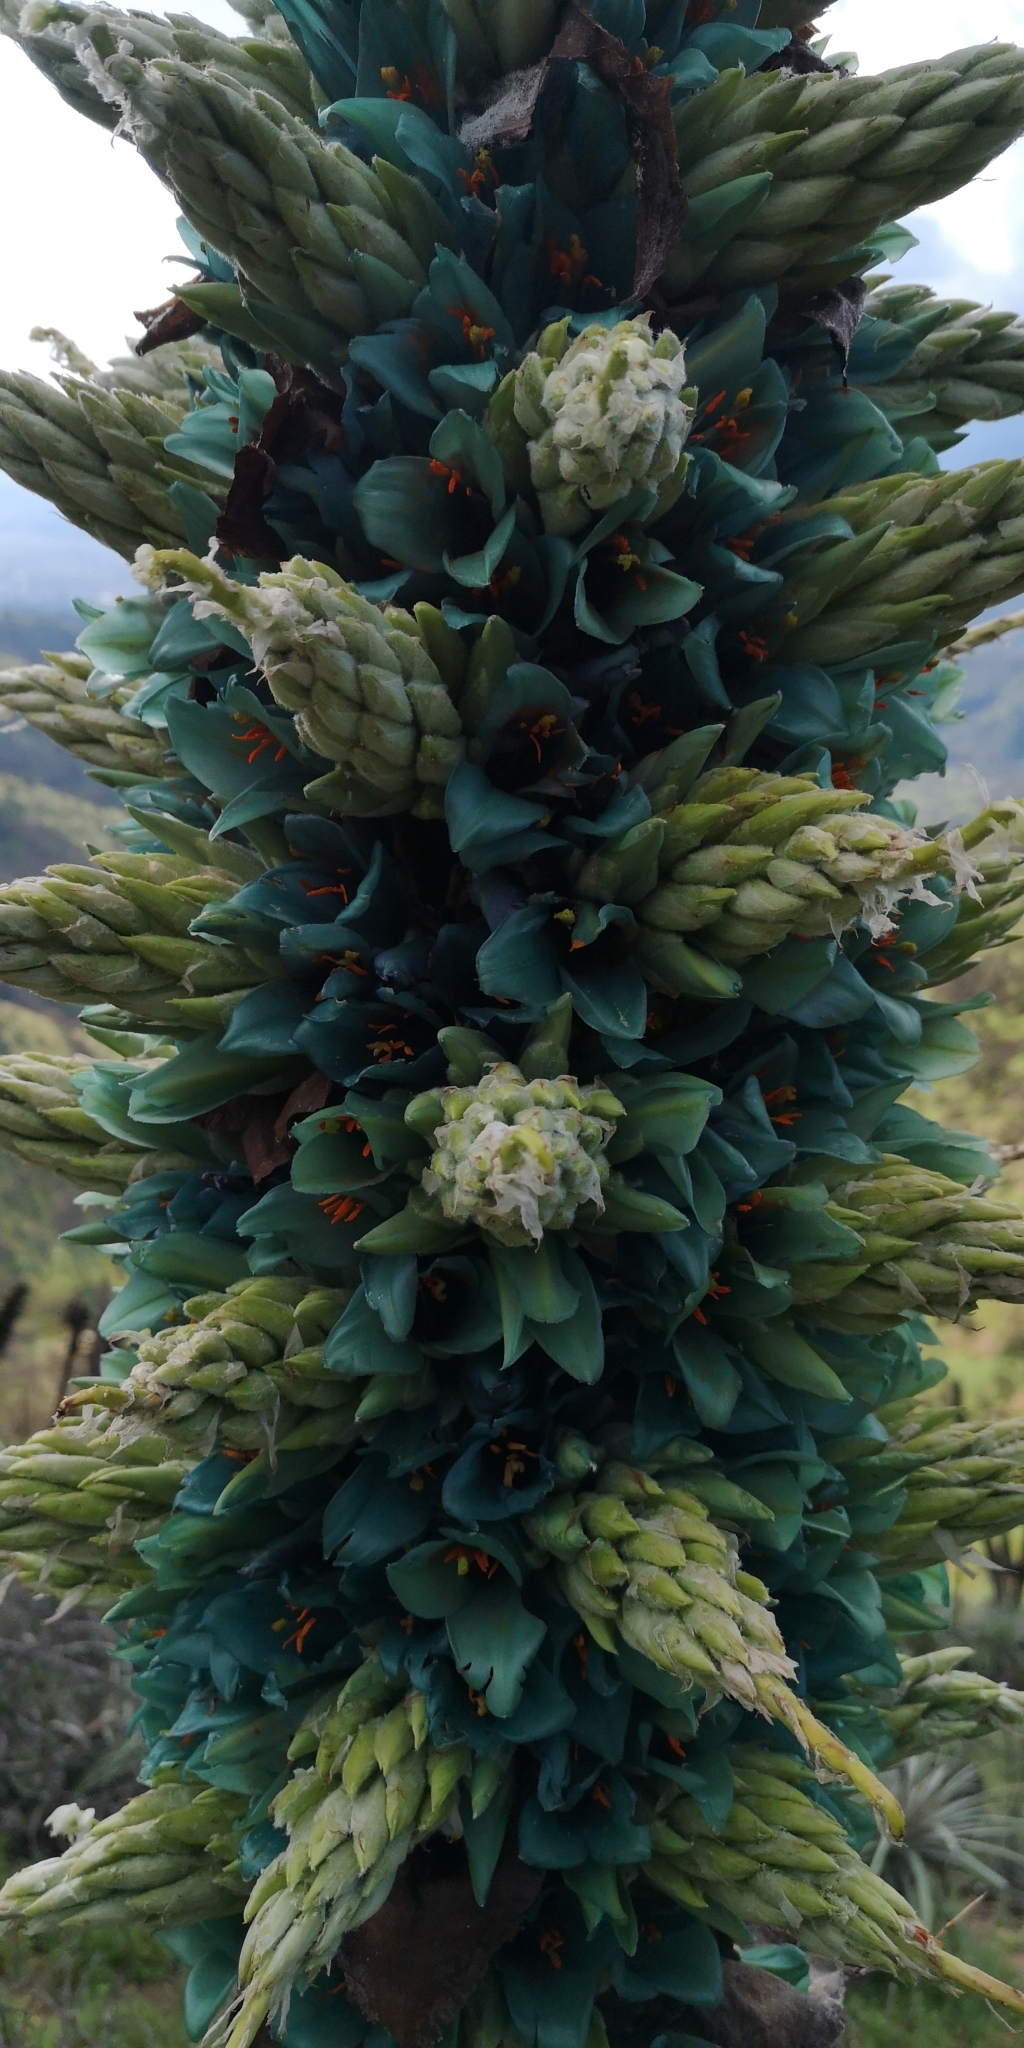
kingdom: Plantae
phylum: Tracheophyta
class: Liliopsida
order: Poales
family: Bromeliaceae
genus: Puya
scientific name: Puya alpestris
